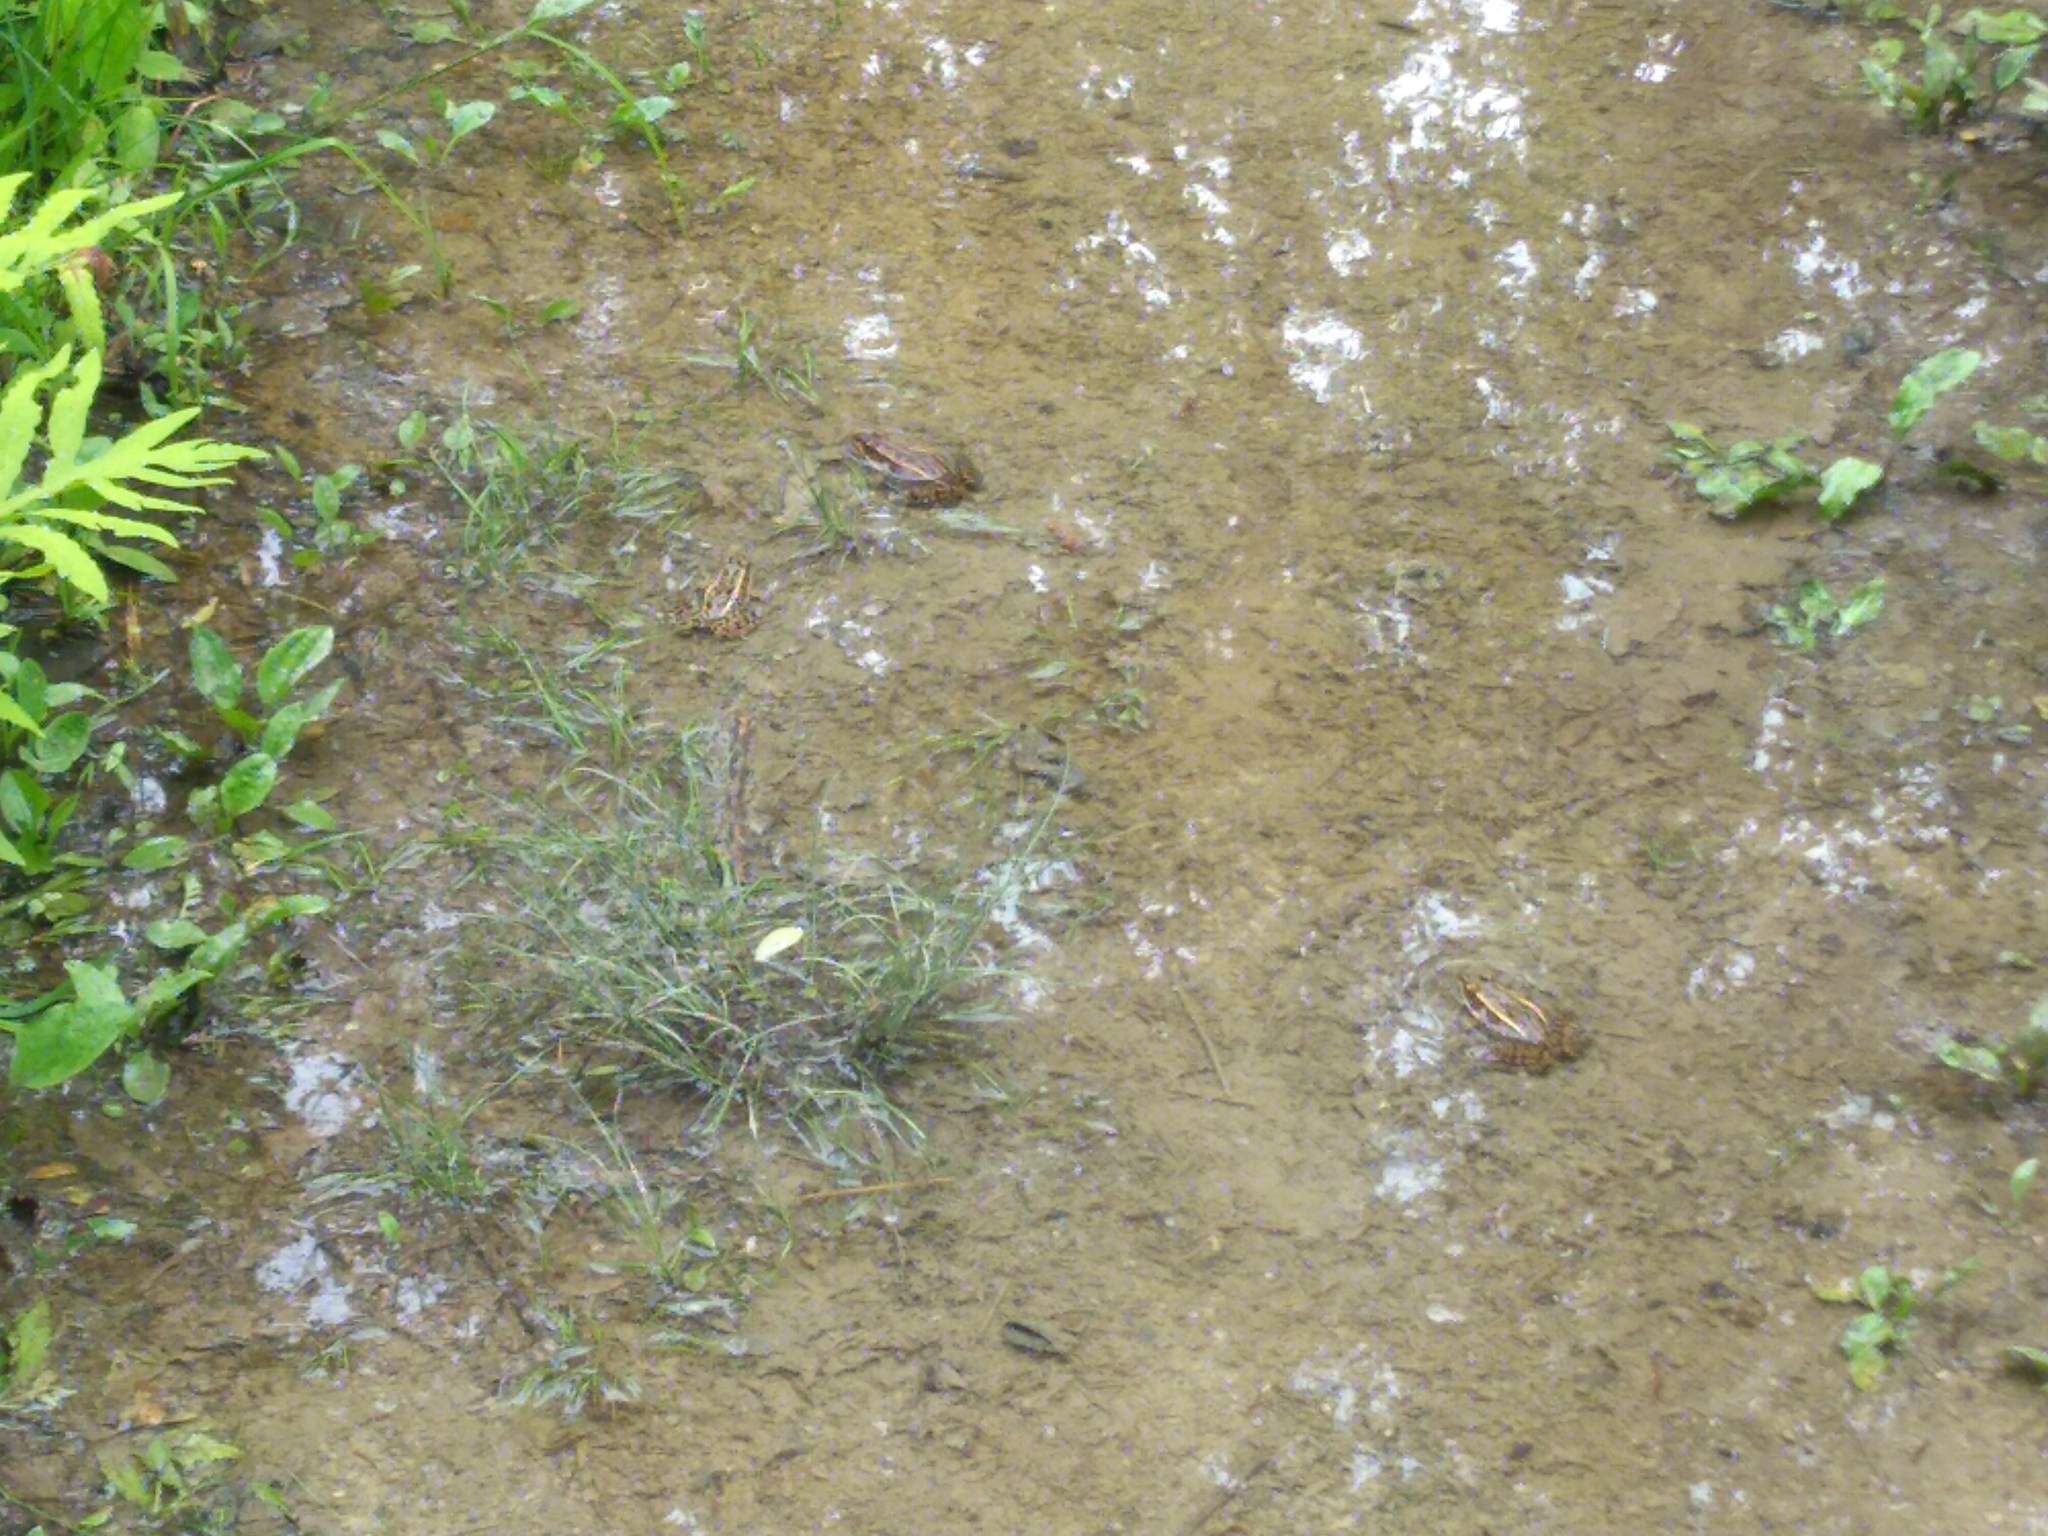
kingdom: Animalia
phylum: Chordata
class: Amphibia
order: Anura
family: Ranidae
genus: Lithobates
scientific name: Lithobates clamitans
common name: Green frog
